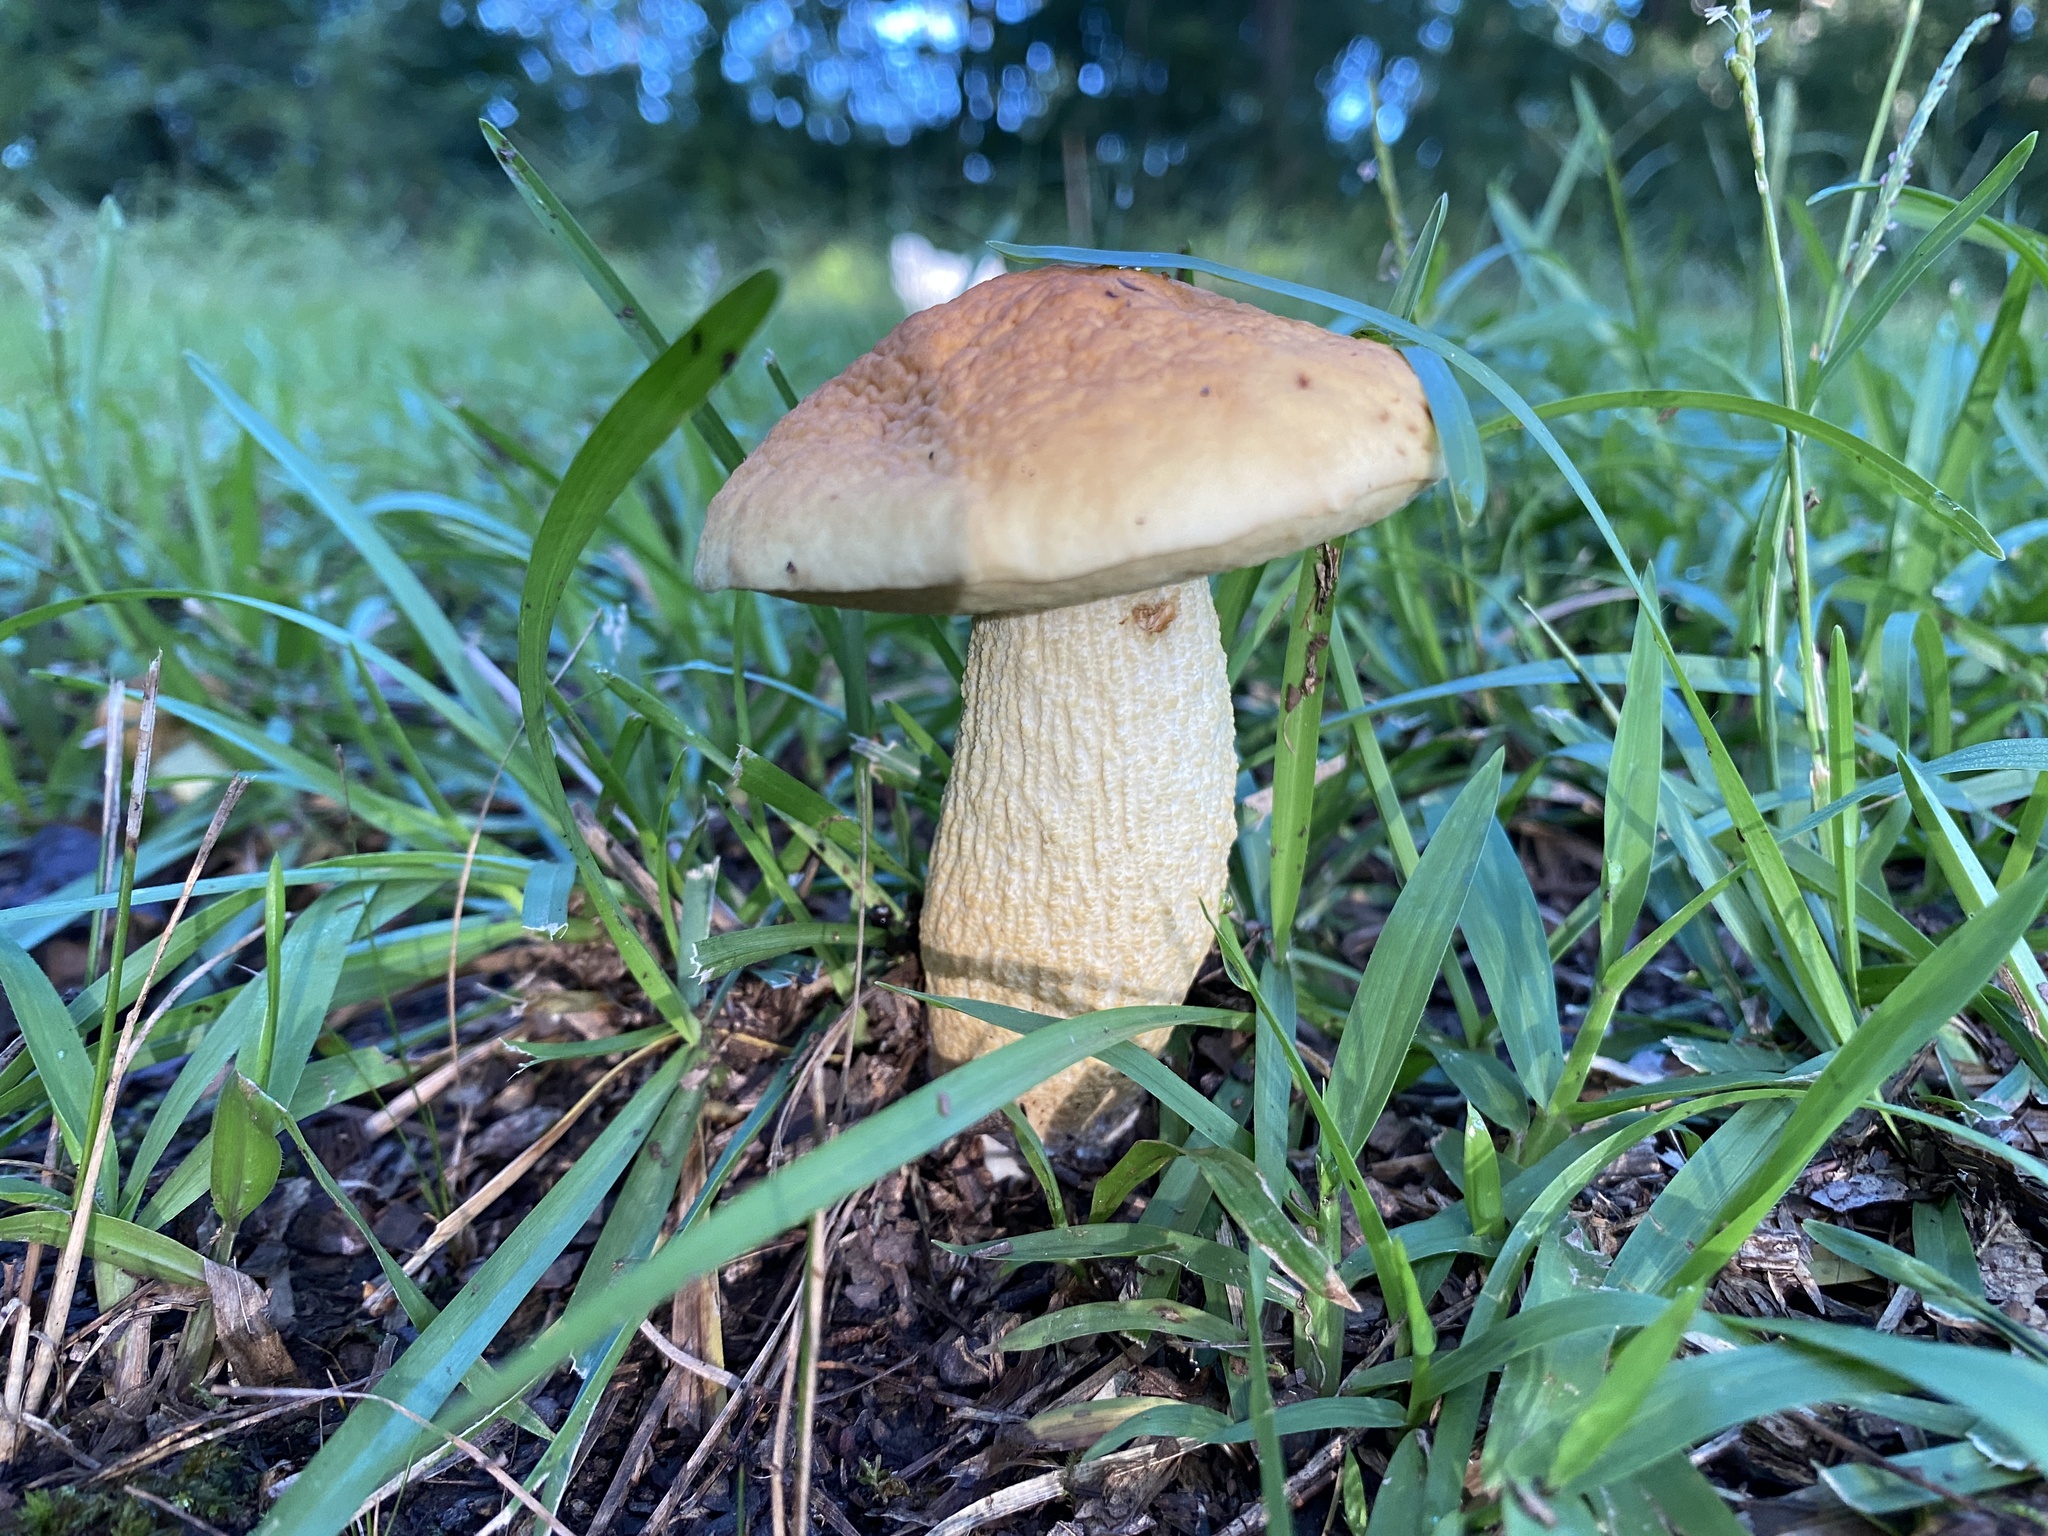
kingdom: Fungi
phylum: Basidiomycota
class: Agaricomycetes
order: Boletales
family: Boletaceae
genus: Leccinellum
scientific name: Leccinellum rugosiceps
